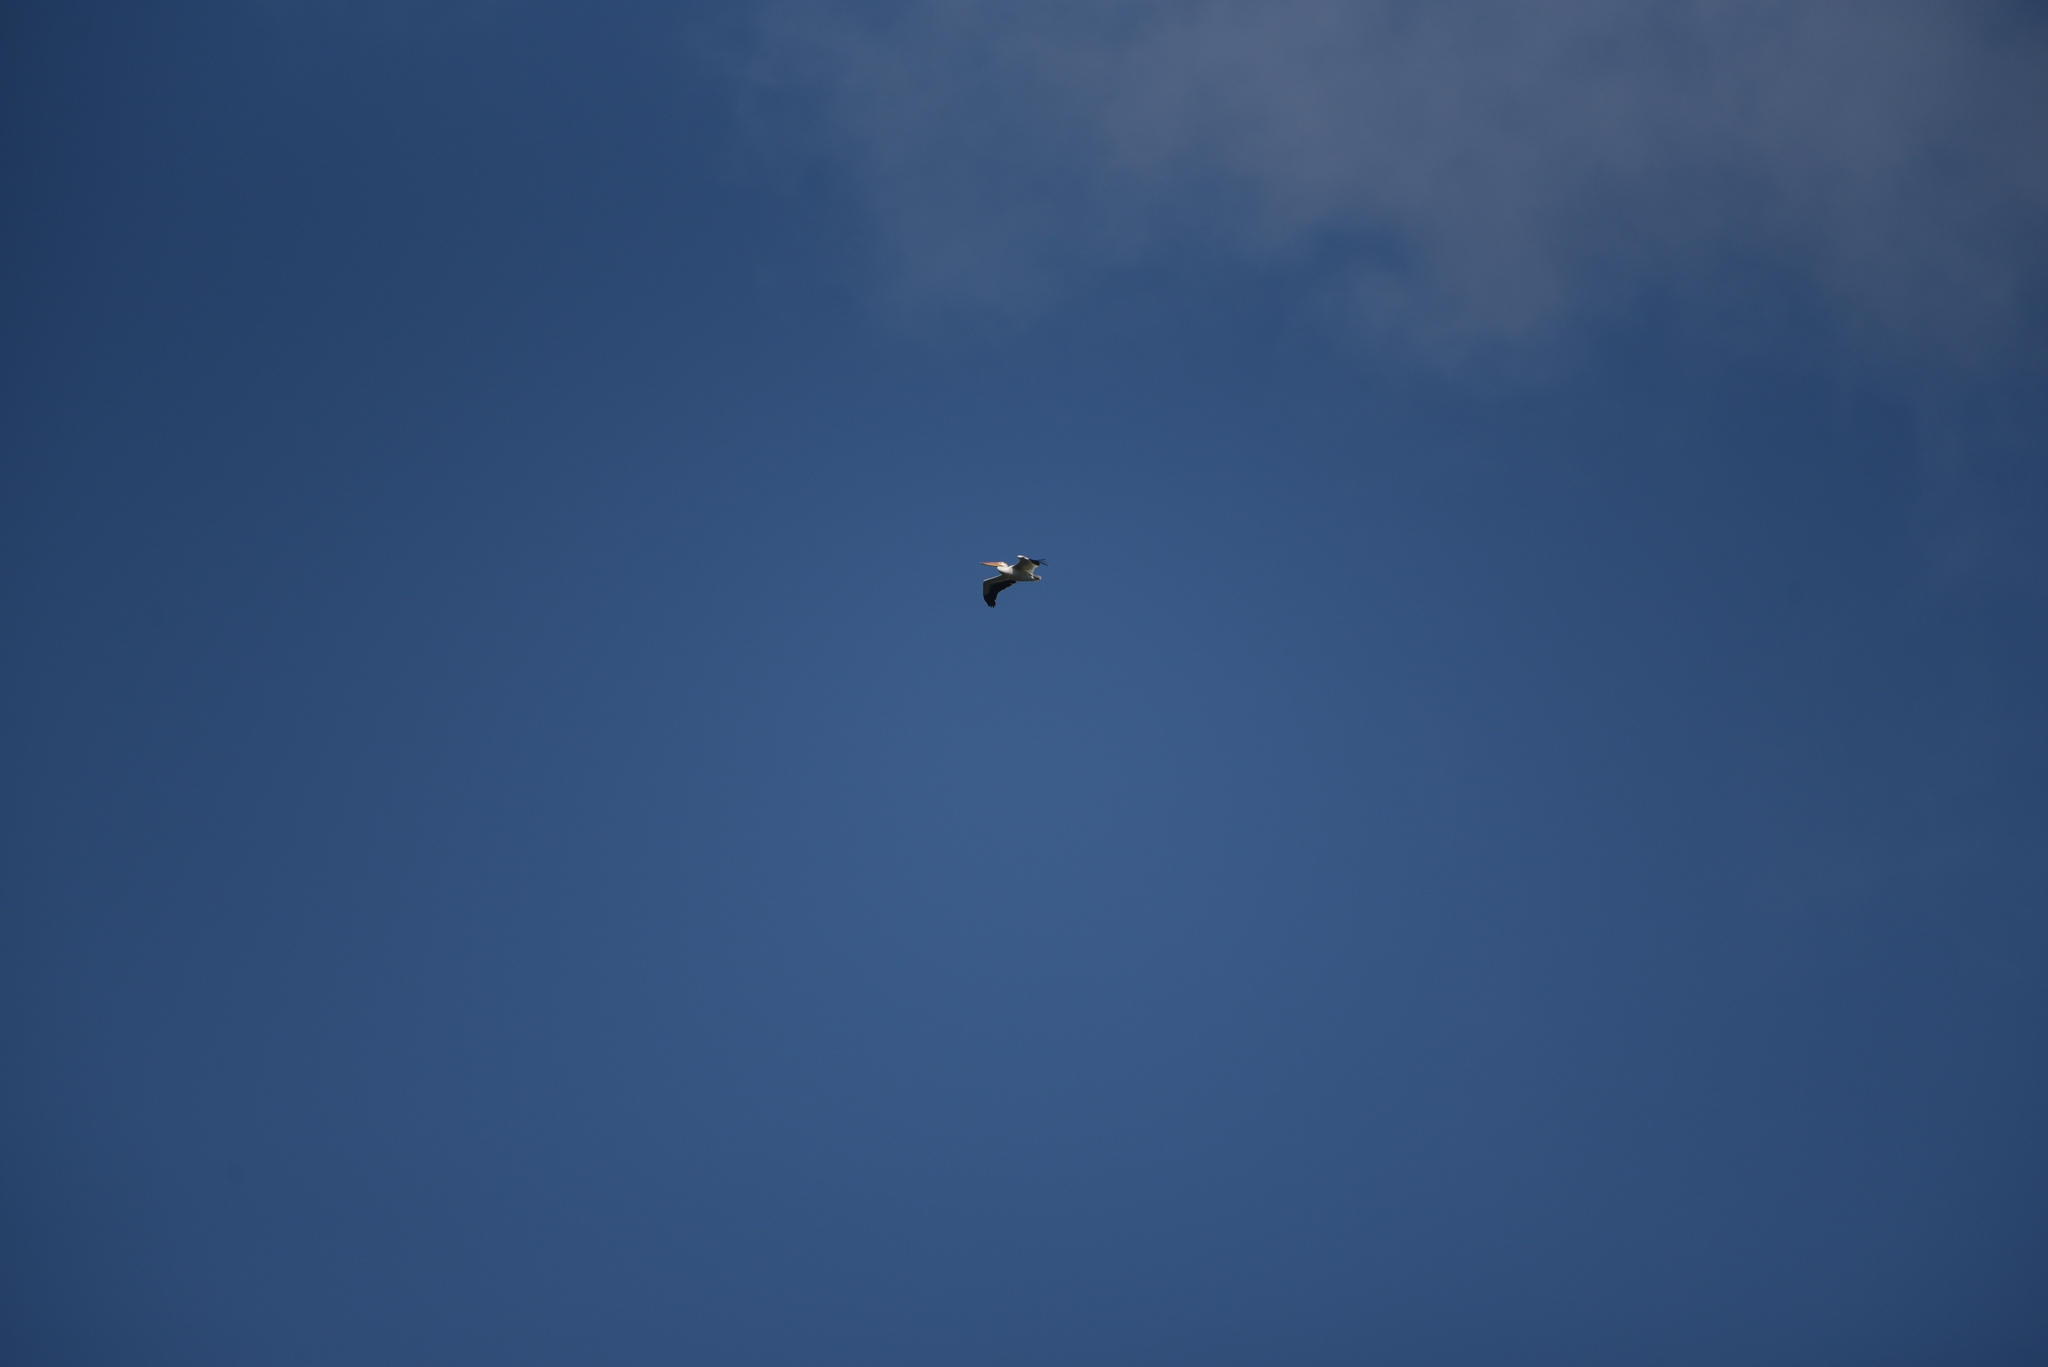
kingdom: Animalia
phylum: Chordata
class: Aves
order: Pelecaniformes
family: Pelecanidae
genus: Pelecanus
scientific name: Pelecanus erythrorhynchos
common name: American white pelican
